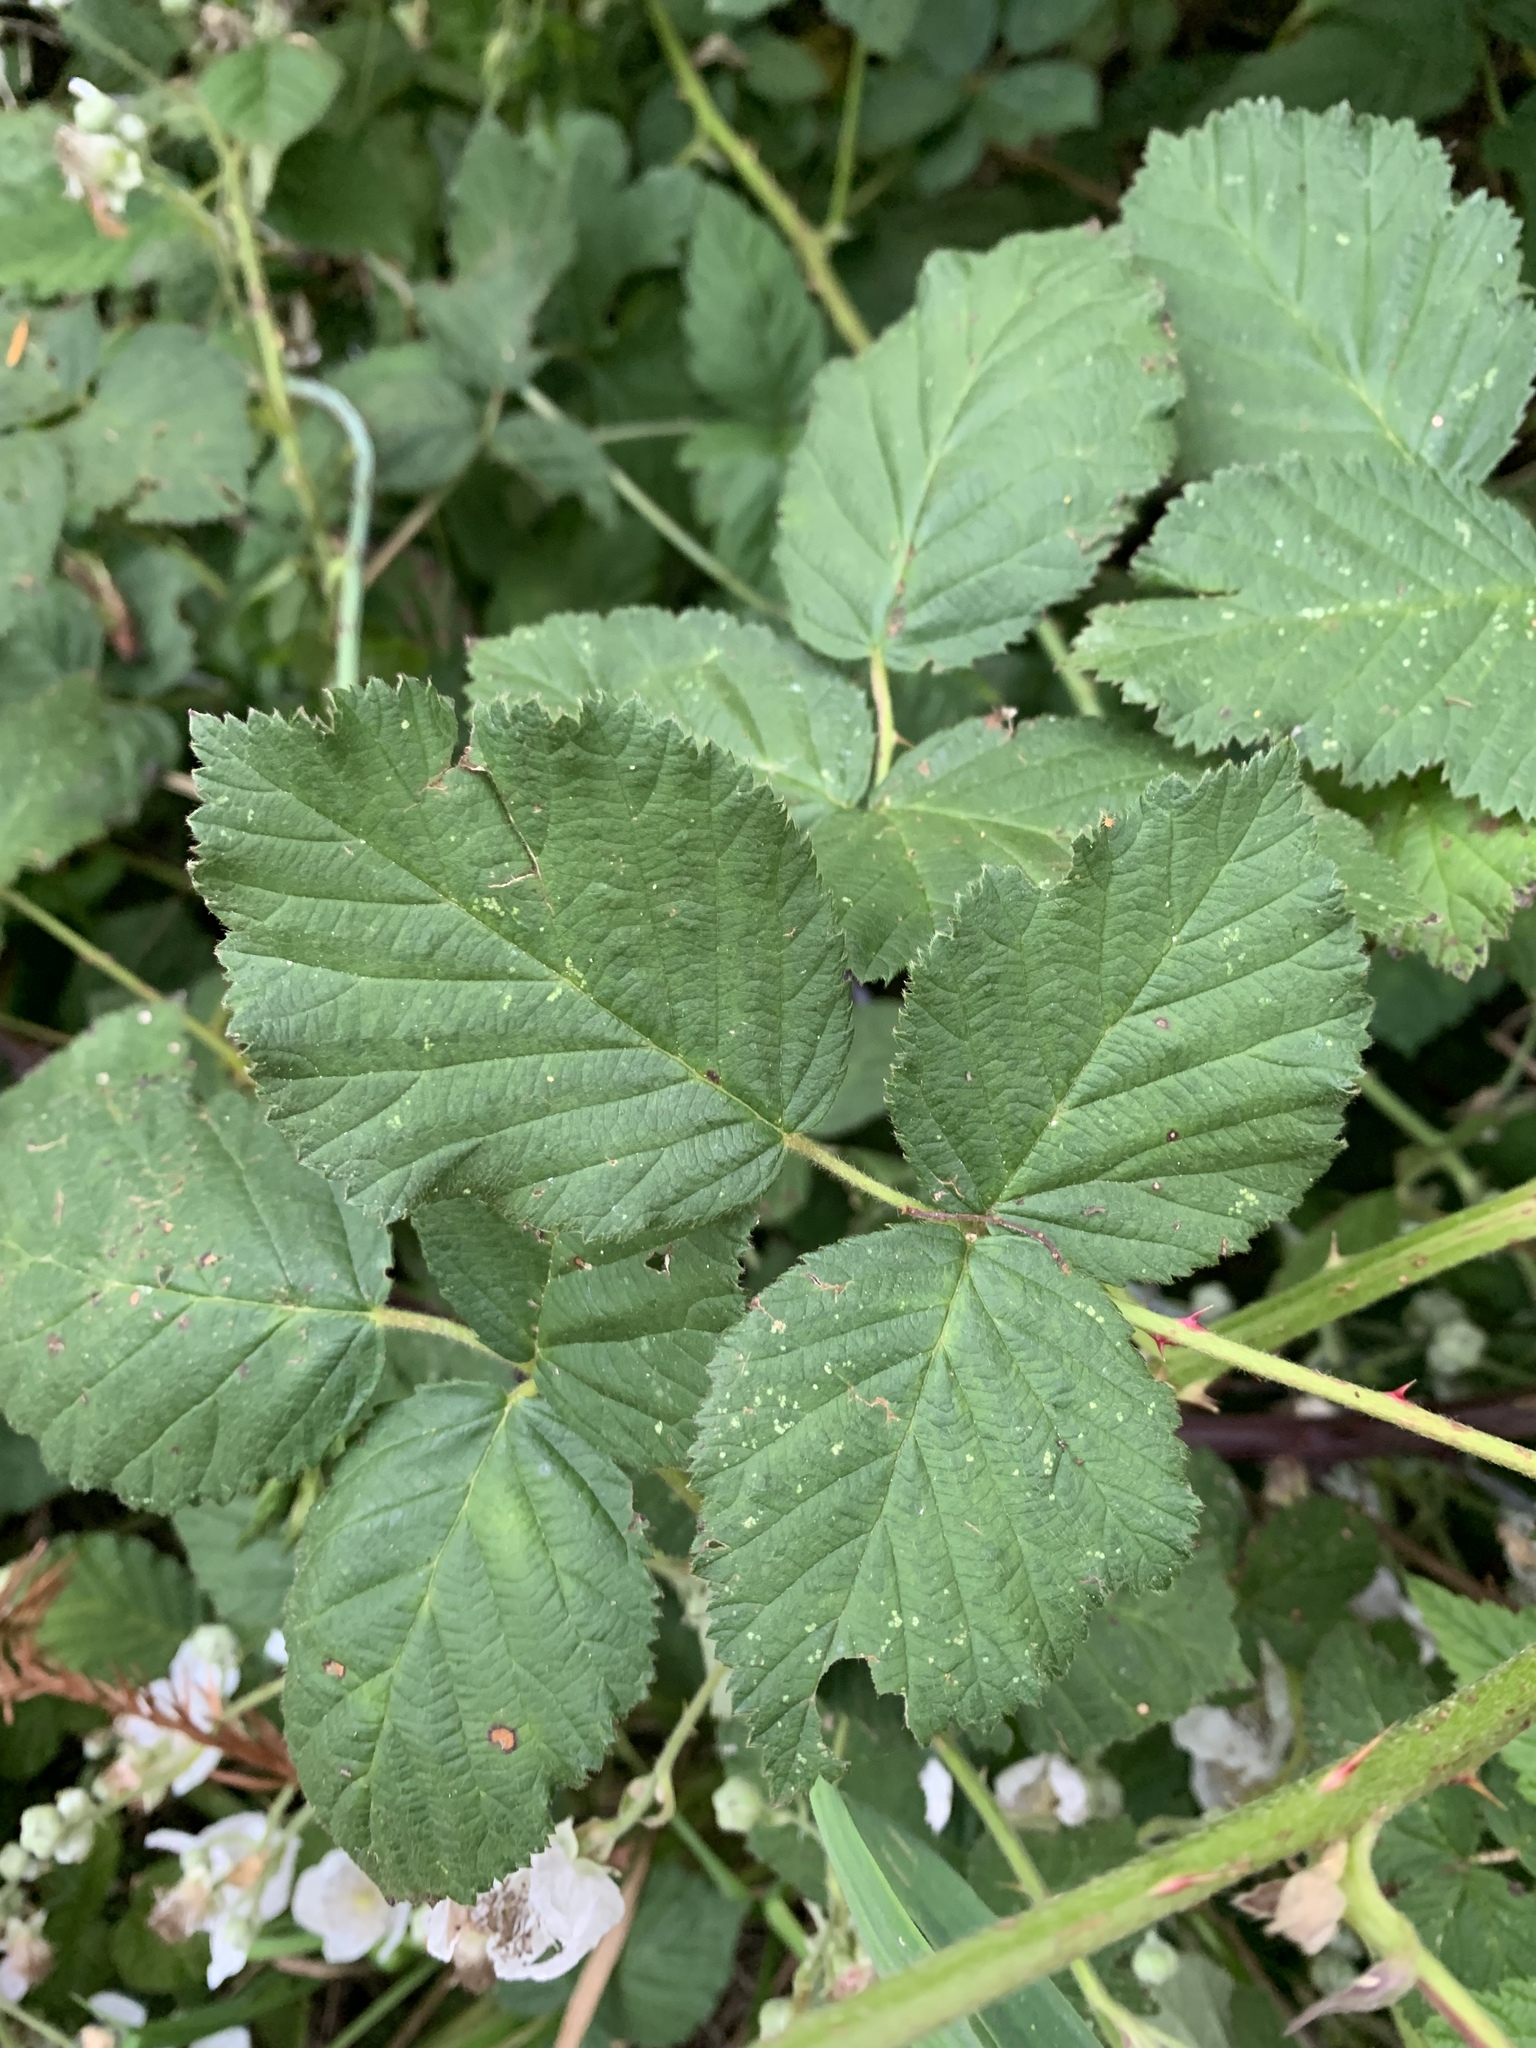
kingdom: Plantae
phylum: Tracheophyta
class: Magnoliopsida
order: Rosales
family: Rosaceae
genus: Rubus
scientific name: Rubus armeniacus
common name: Himalayan blackberry
